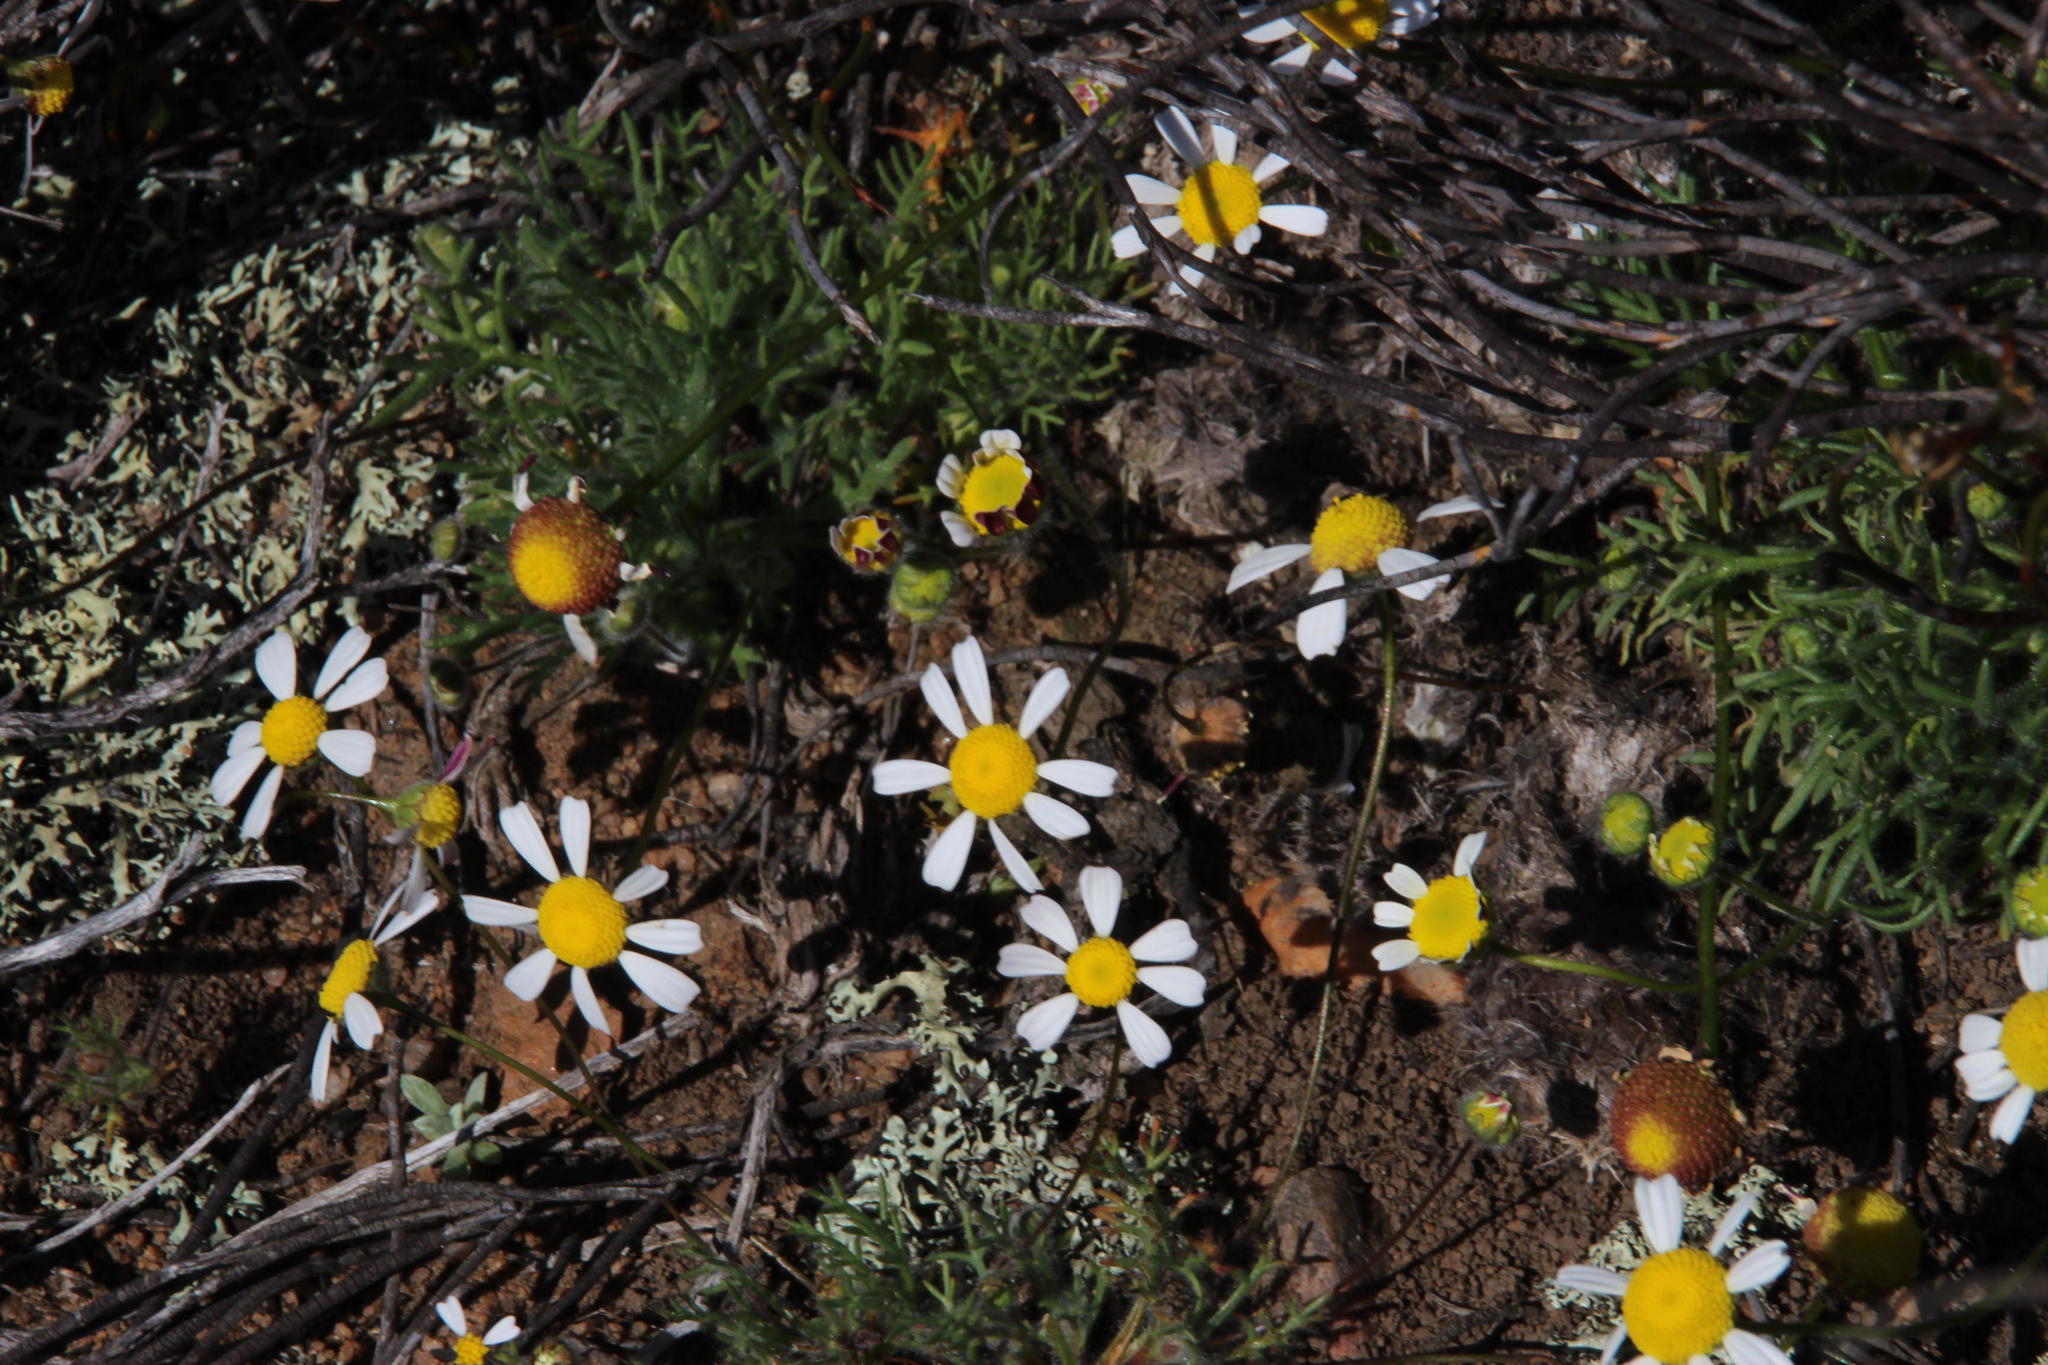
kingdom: Plantae
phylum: Tracheophyta
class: Magnoliopsida
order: Asterales
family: Asteraceae
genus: Cotula
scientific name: Cotula macroglossa
